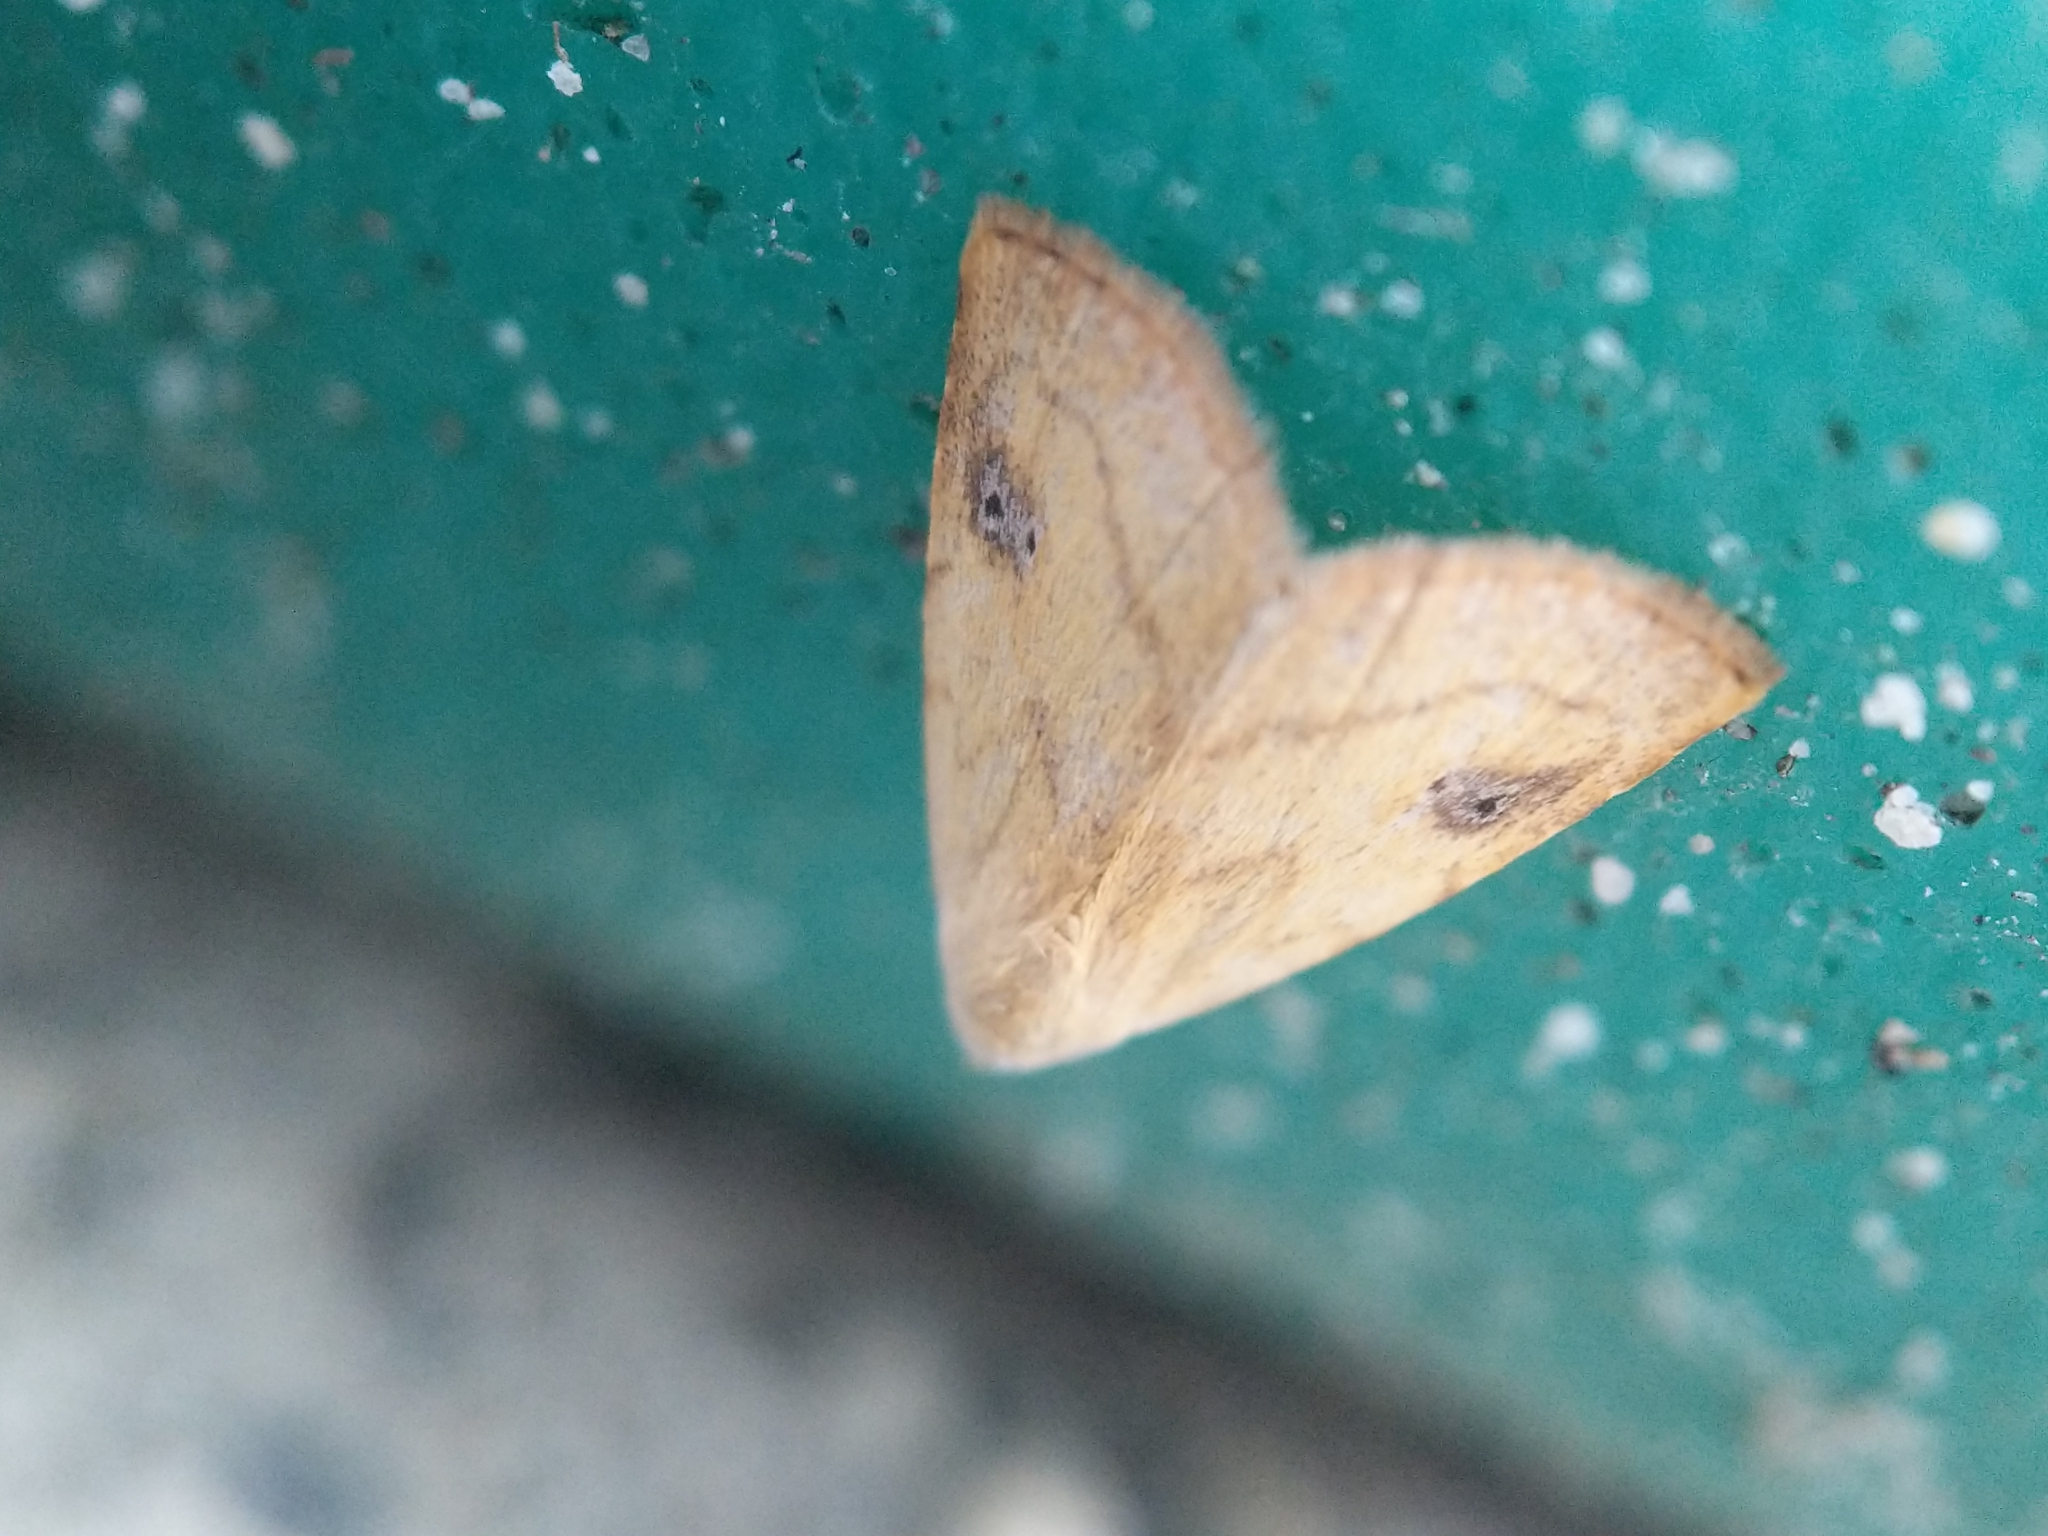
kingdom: Animalia
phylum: Arthropoda
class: Insecta
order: Lepidoptera
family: Erebidae
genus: Rivula
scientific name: Rivula propinqualis
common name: Spotted grass moth
